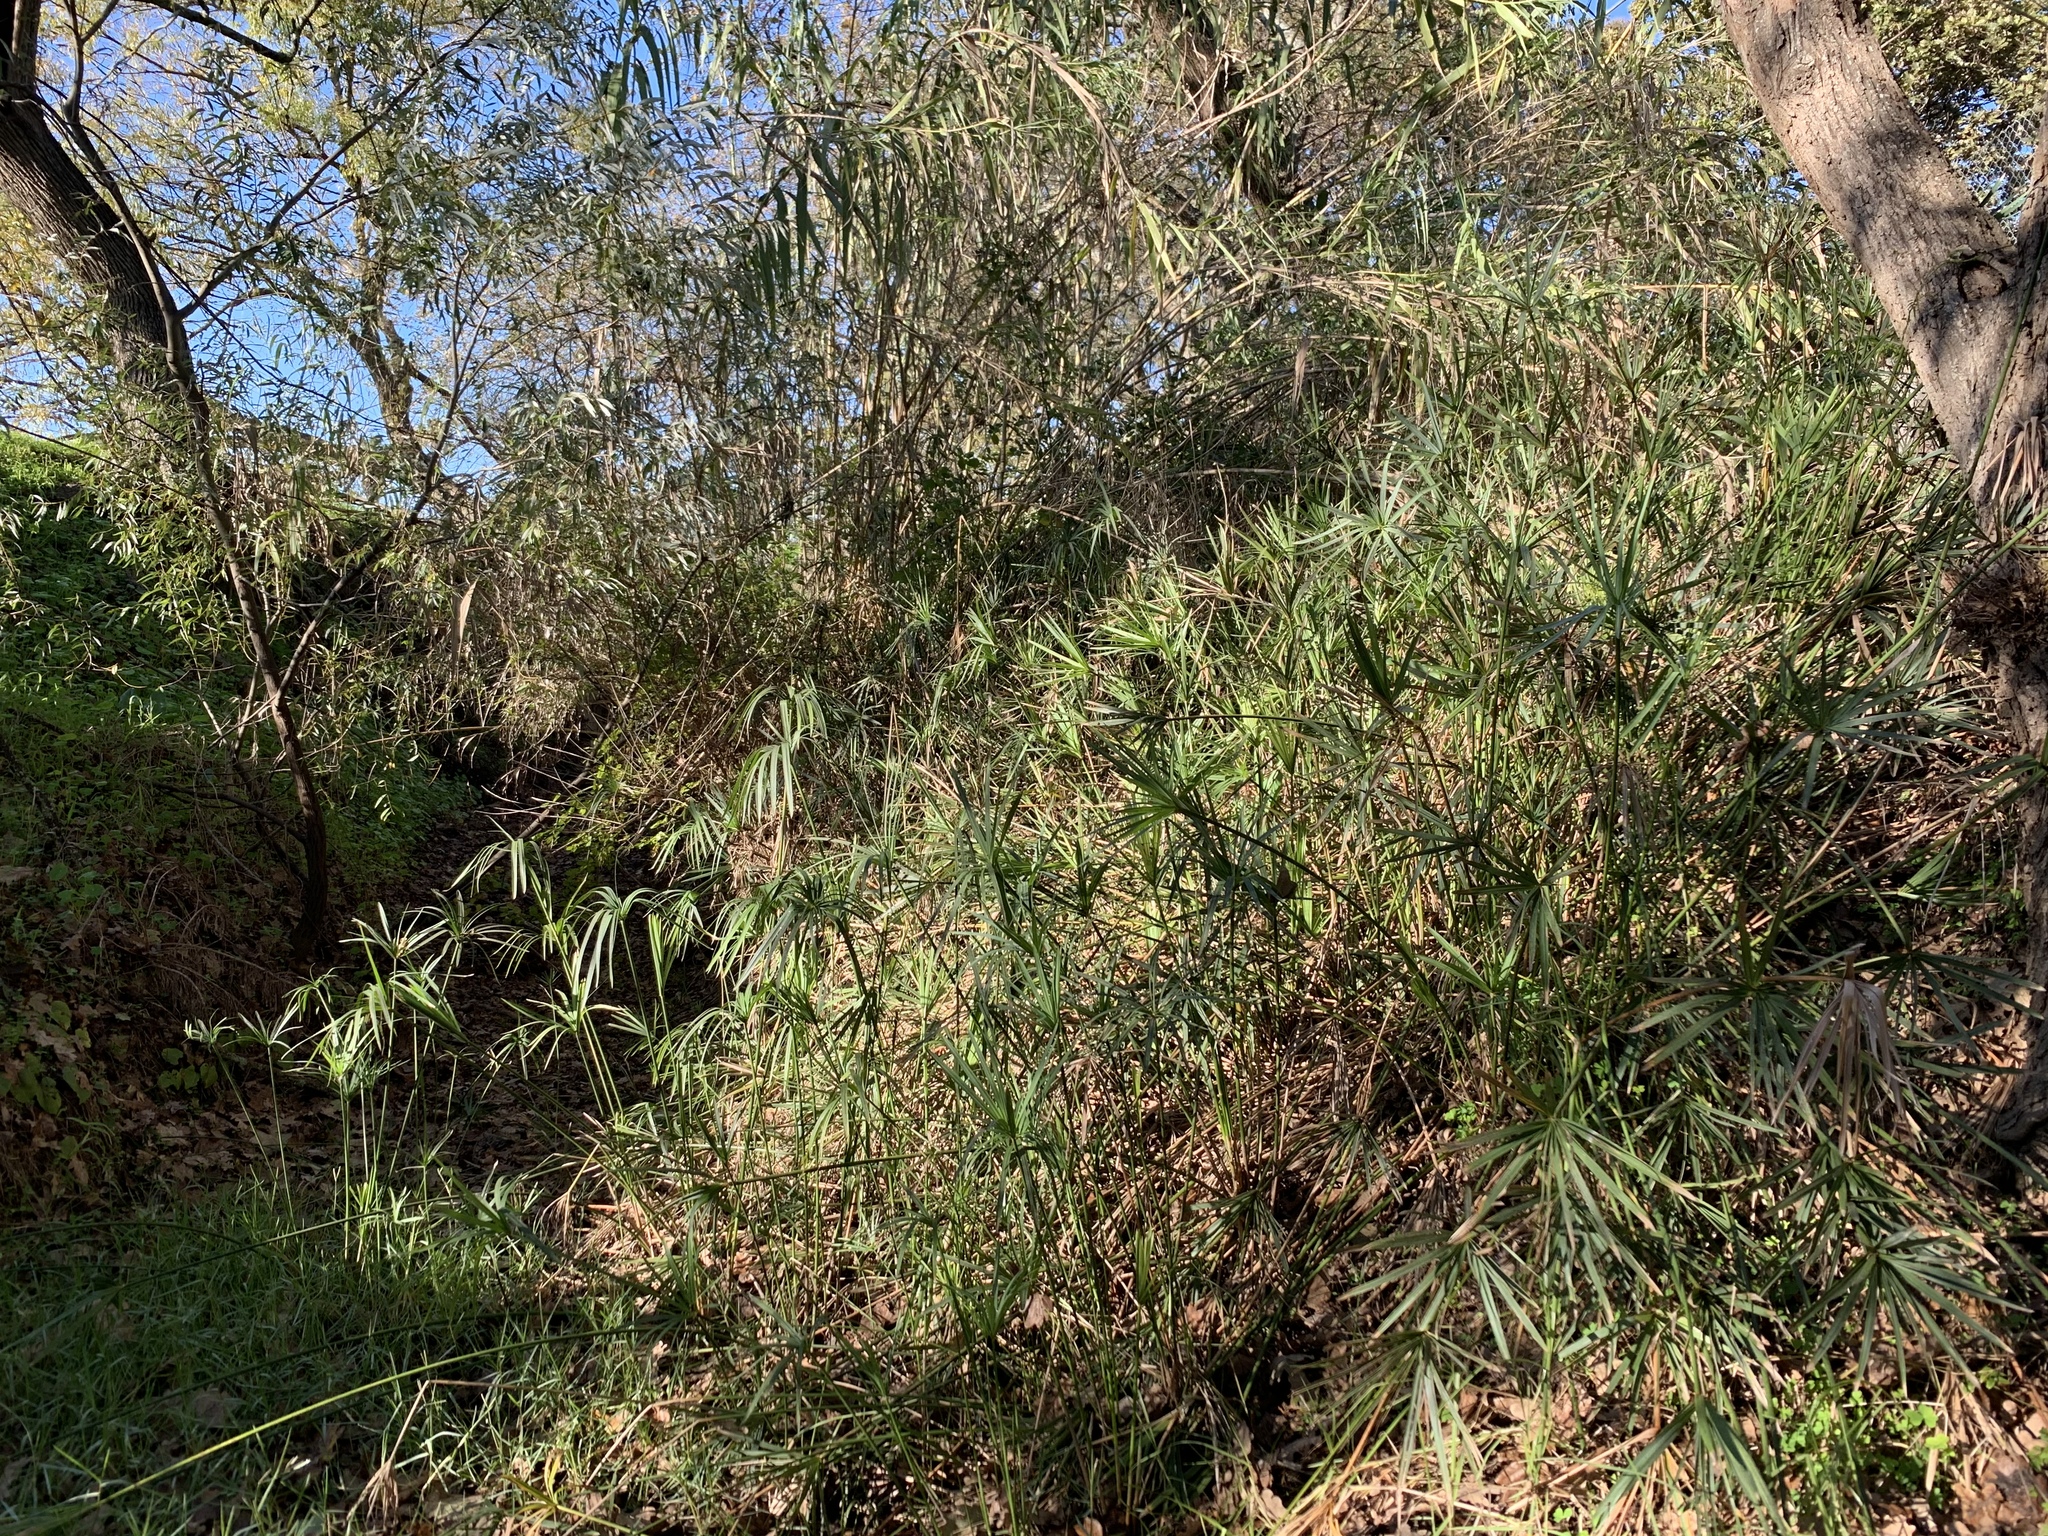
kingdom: Plantae
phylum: Tracheophyta
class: Liliopsida
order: Poales
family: Cyperaceae
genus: Cyperus
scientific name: Cyperus textilis
